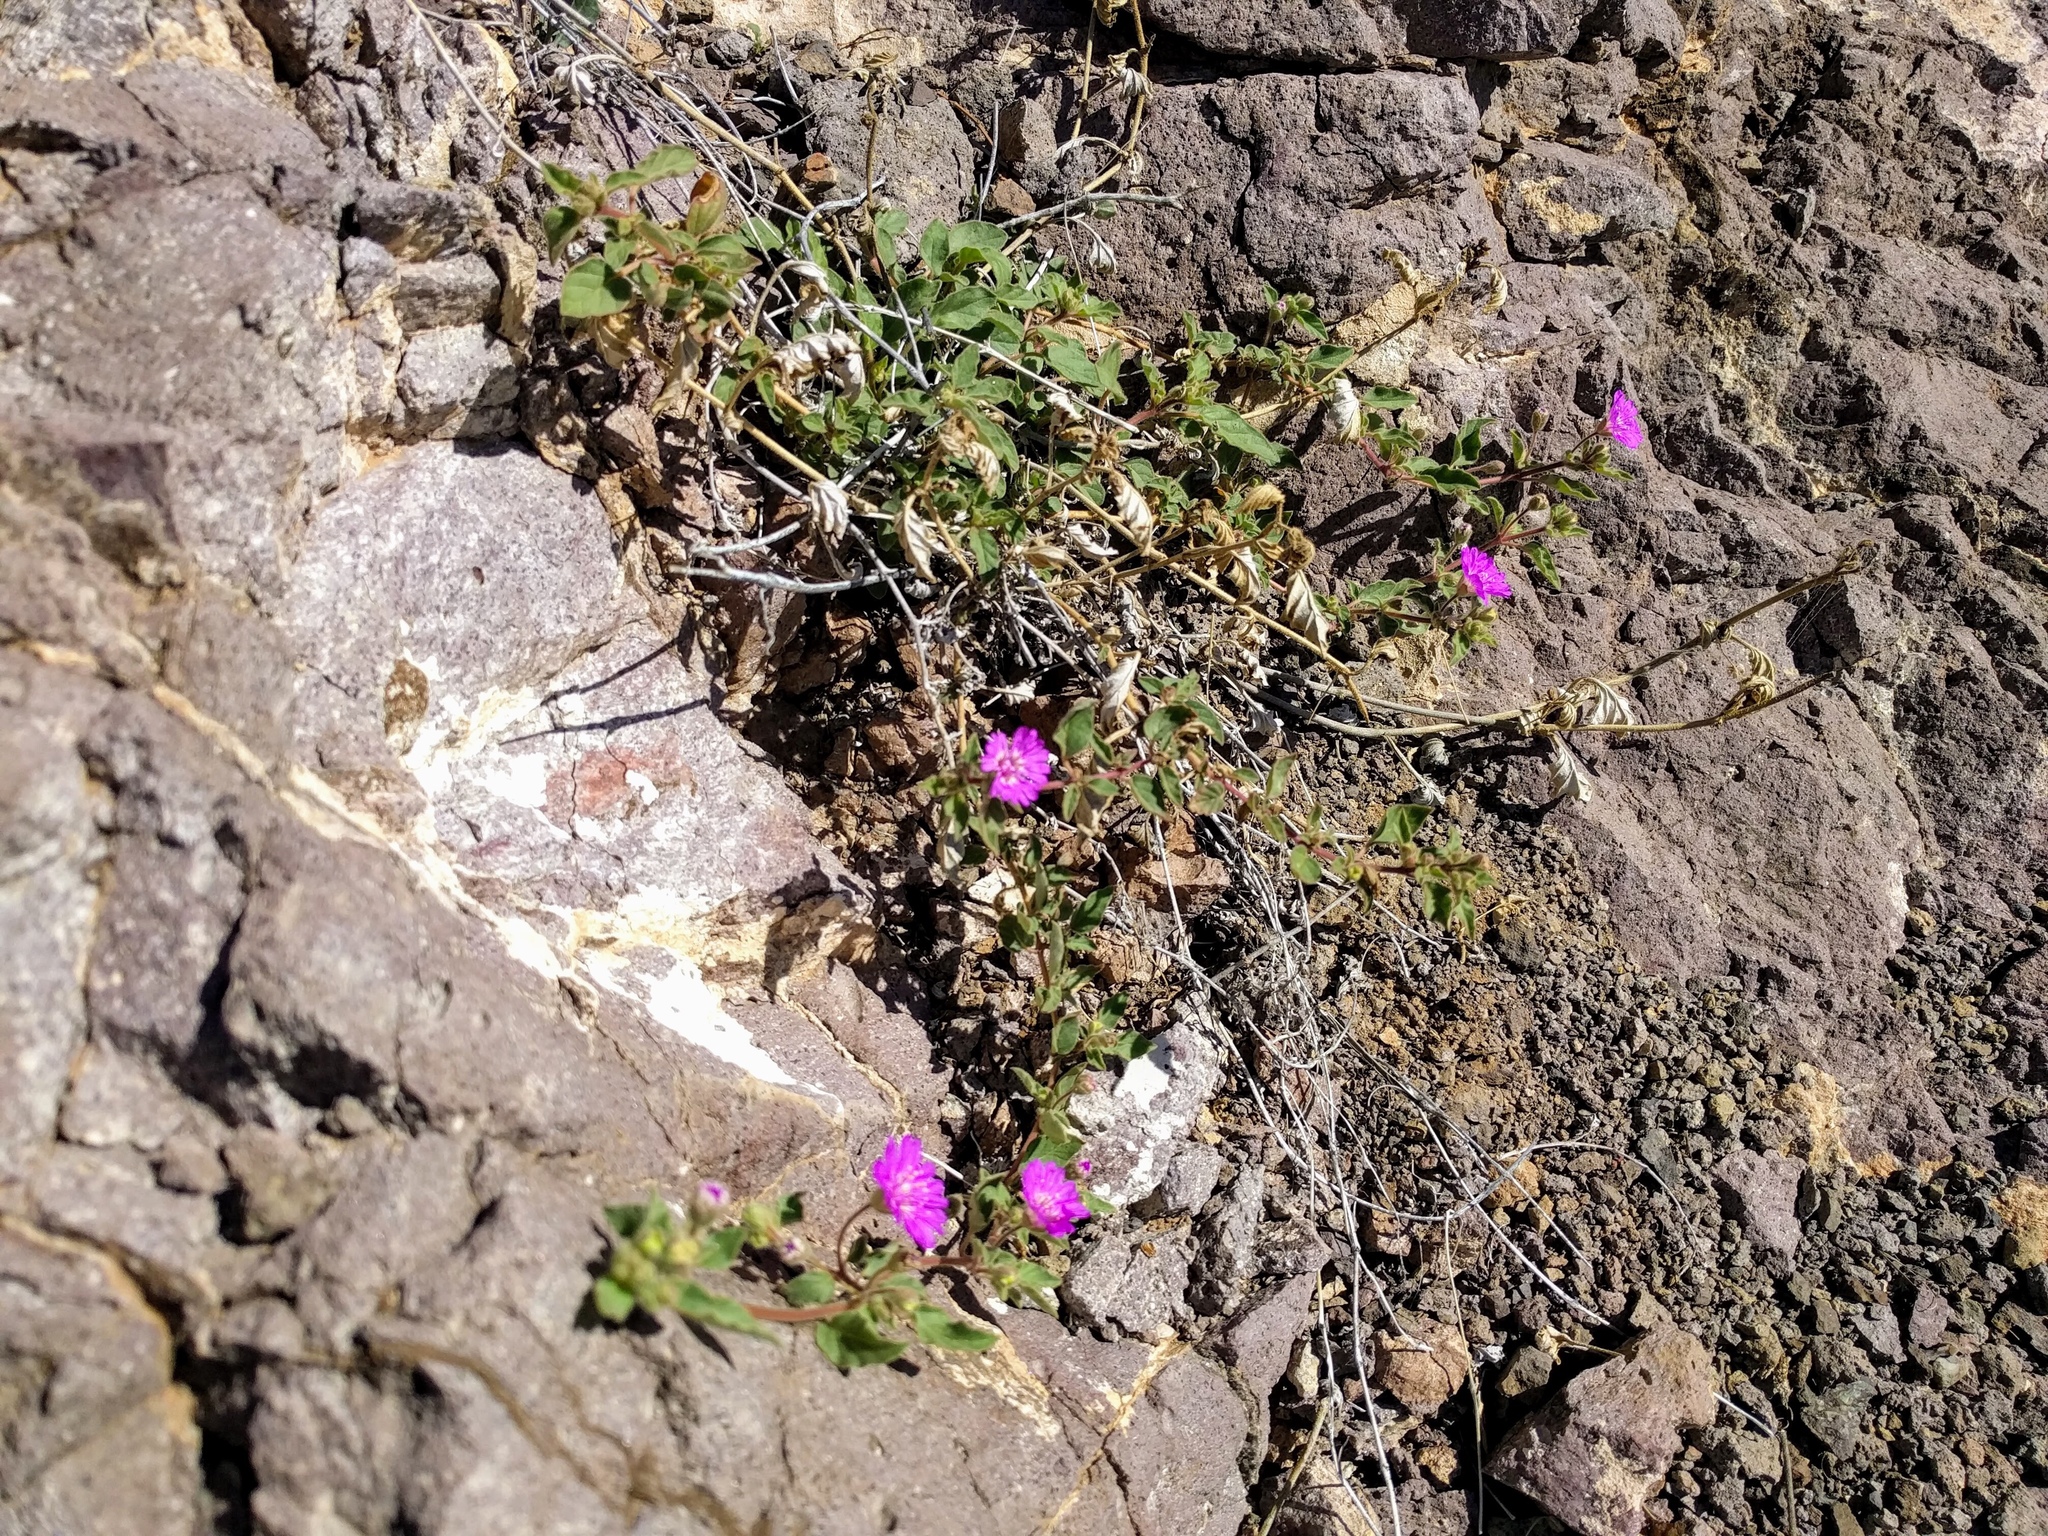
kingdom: Plantae
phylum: Tracheophyta
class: Magnoliopsida
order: Caryophyllales
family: Nyctaginaceae
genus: Allionia
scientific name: Allionia incarnata
